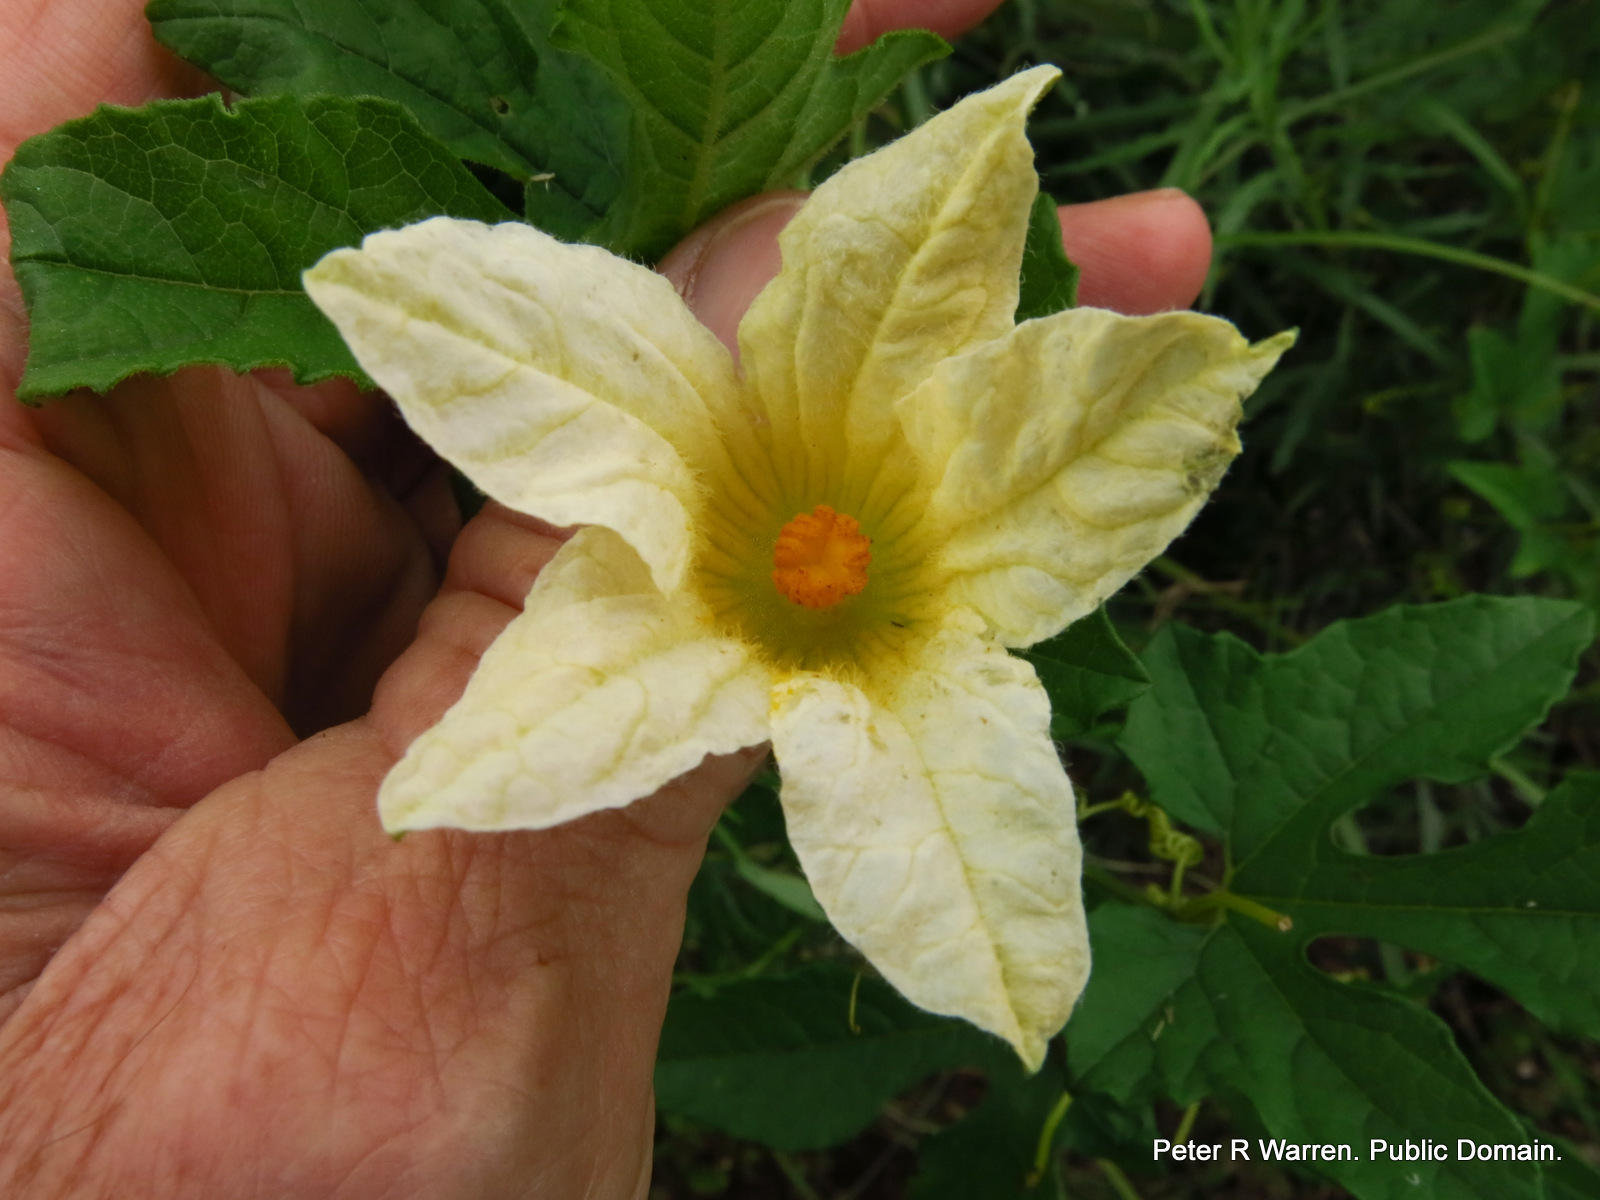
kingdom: Plantae
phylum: Tracheophyta
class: Magnoliopsida
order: Cucurbitales
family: Cucurbitaceae
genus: Coccinia
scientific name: Coccinia adoensis
